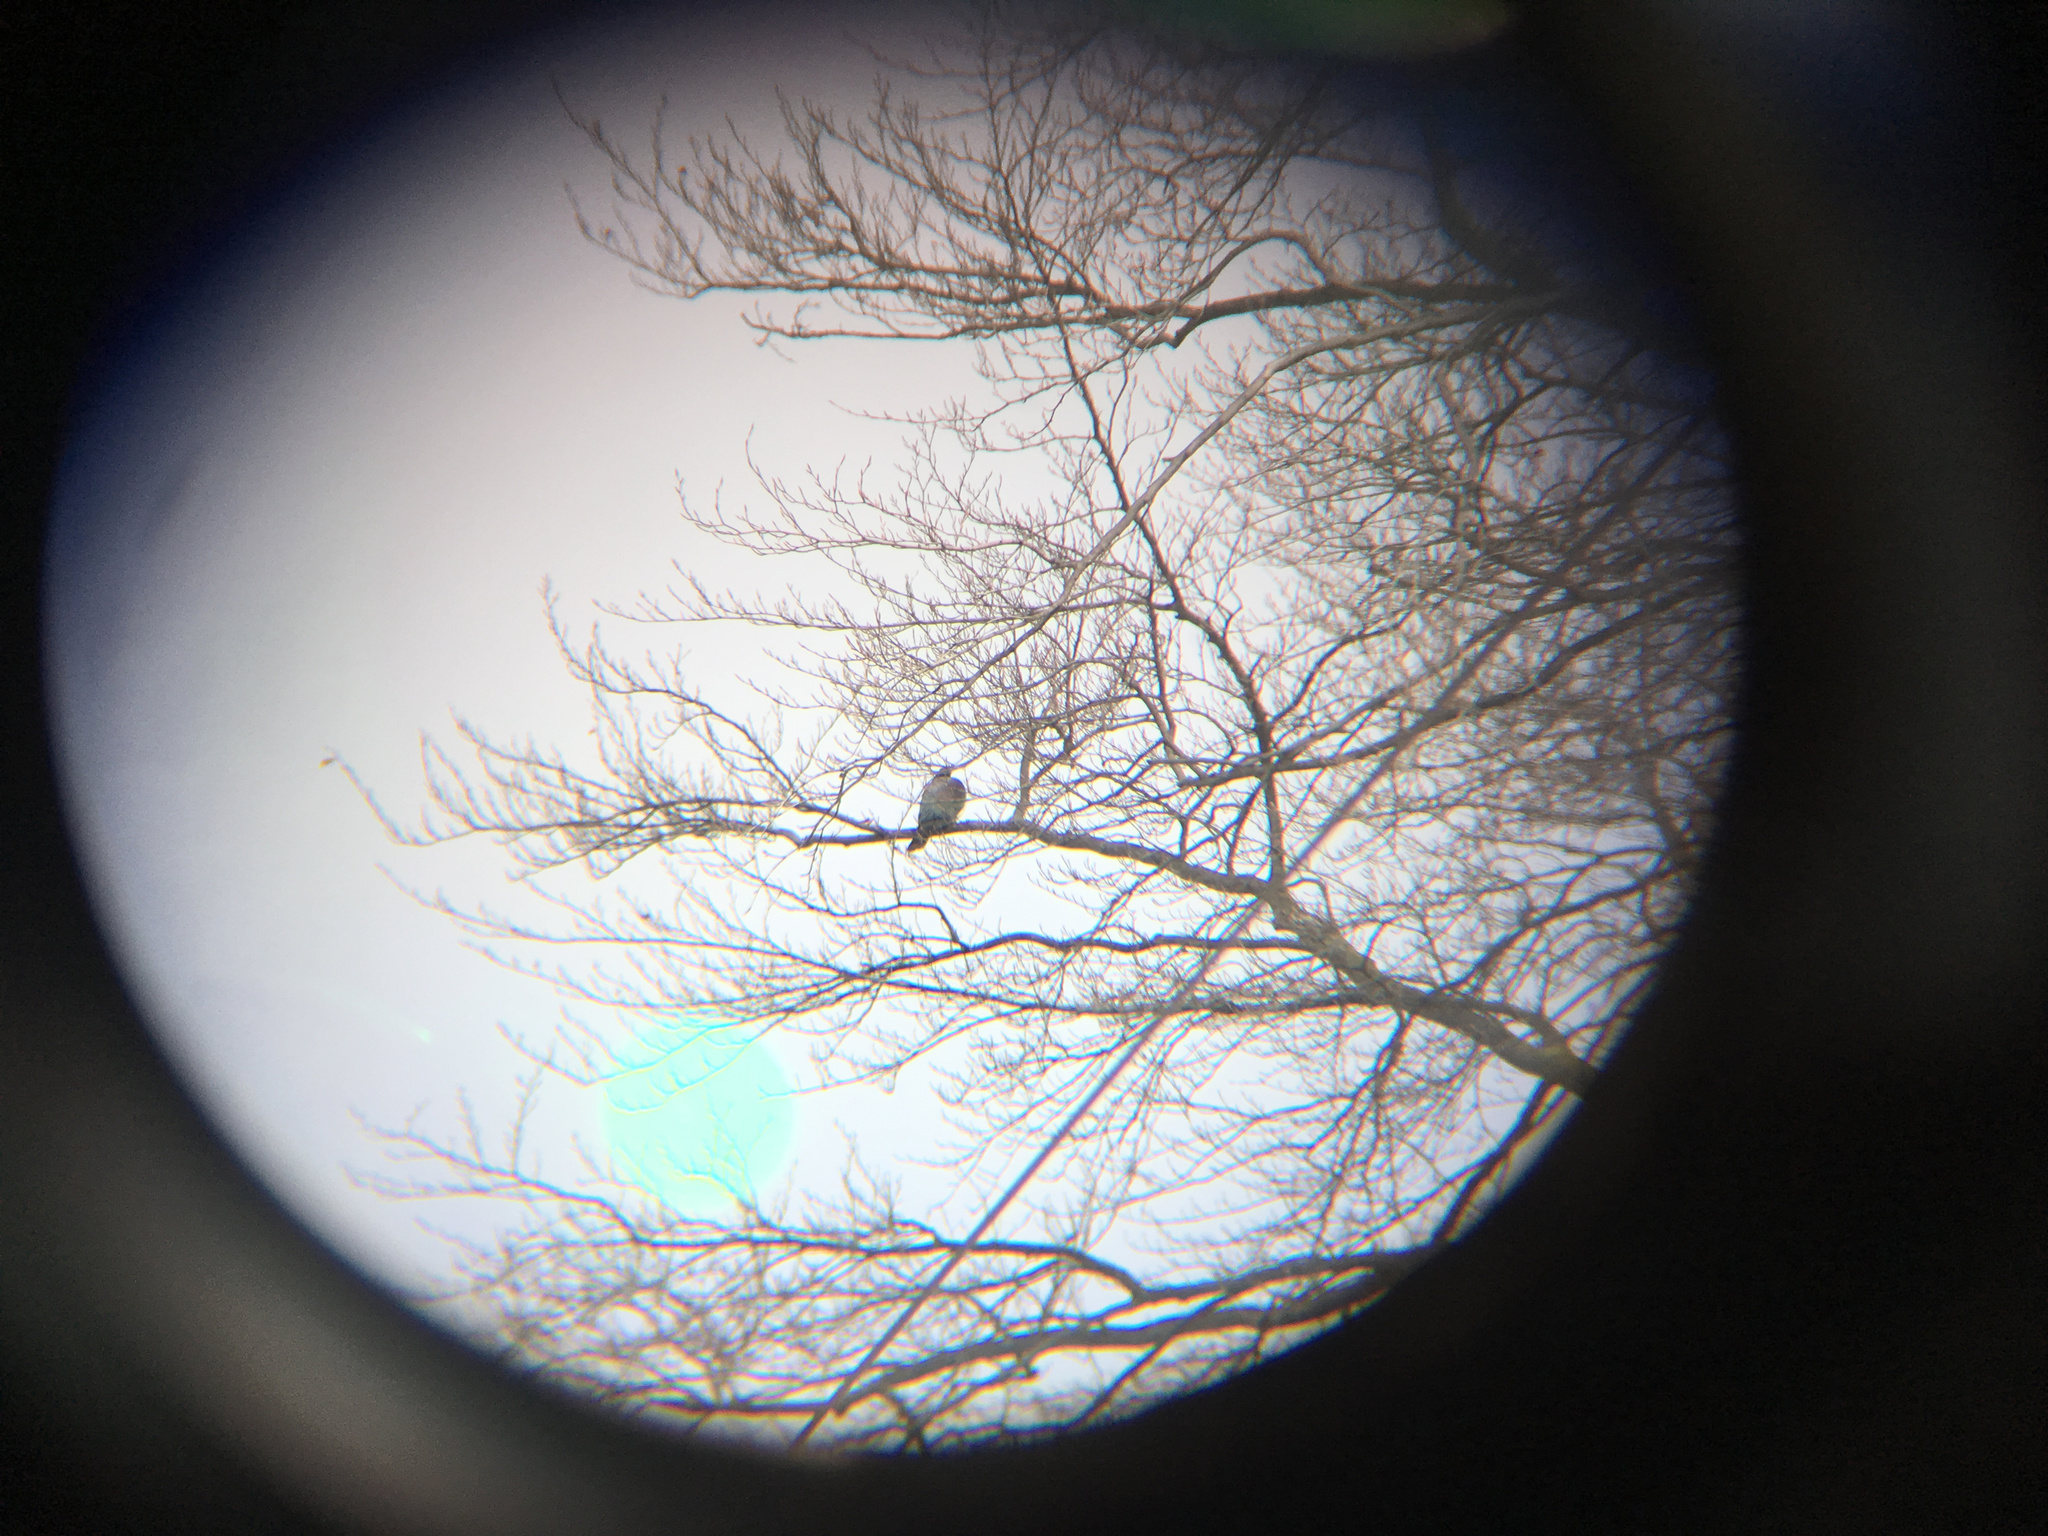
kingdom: Animalia
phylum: Chordata
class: Aves
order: Columbiformes
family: Columbidae
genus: Hemiphaga
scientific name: Hemiphaga novaeseelandiae
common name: New zealand pigeon
